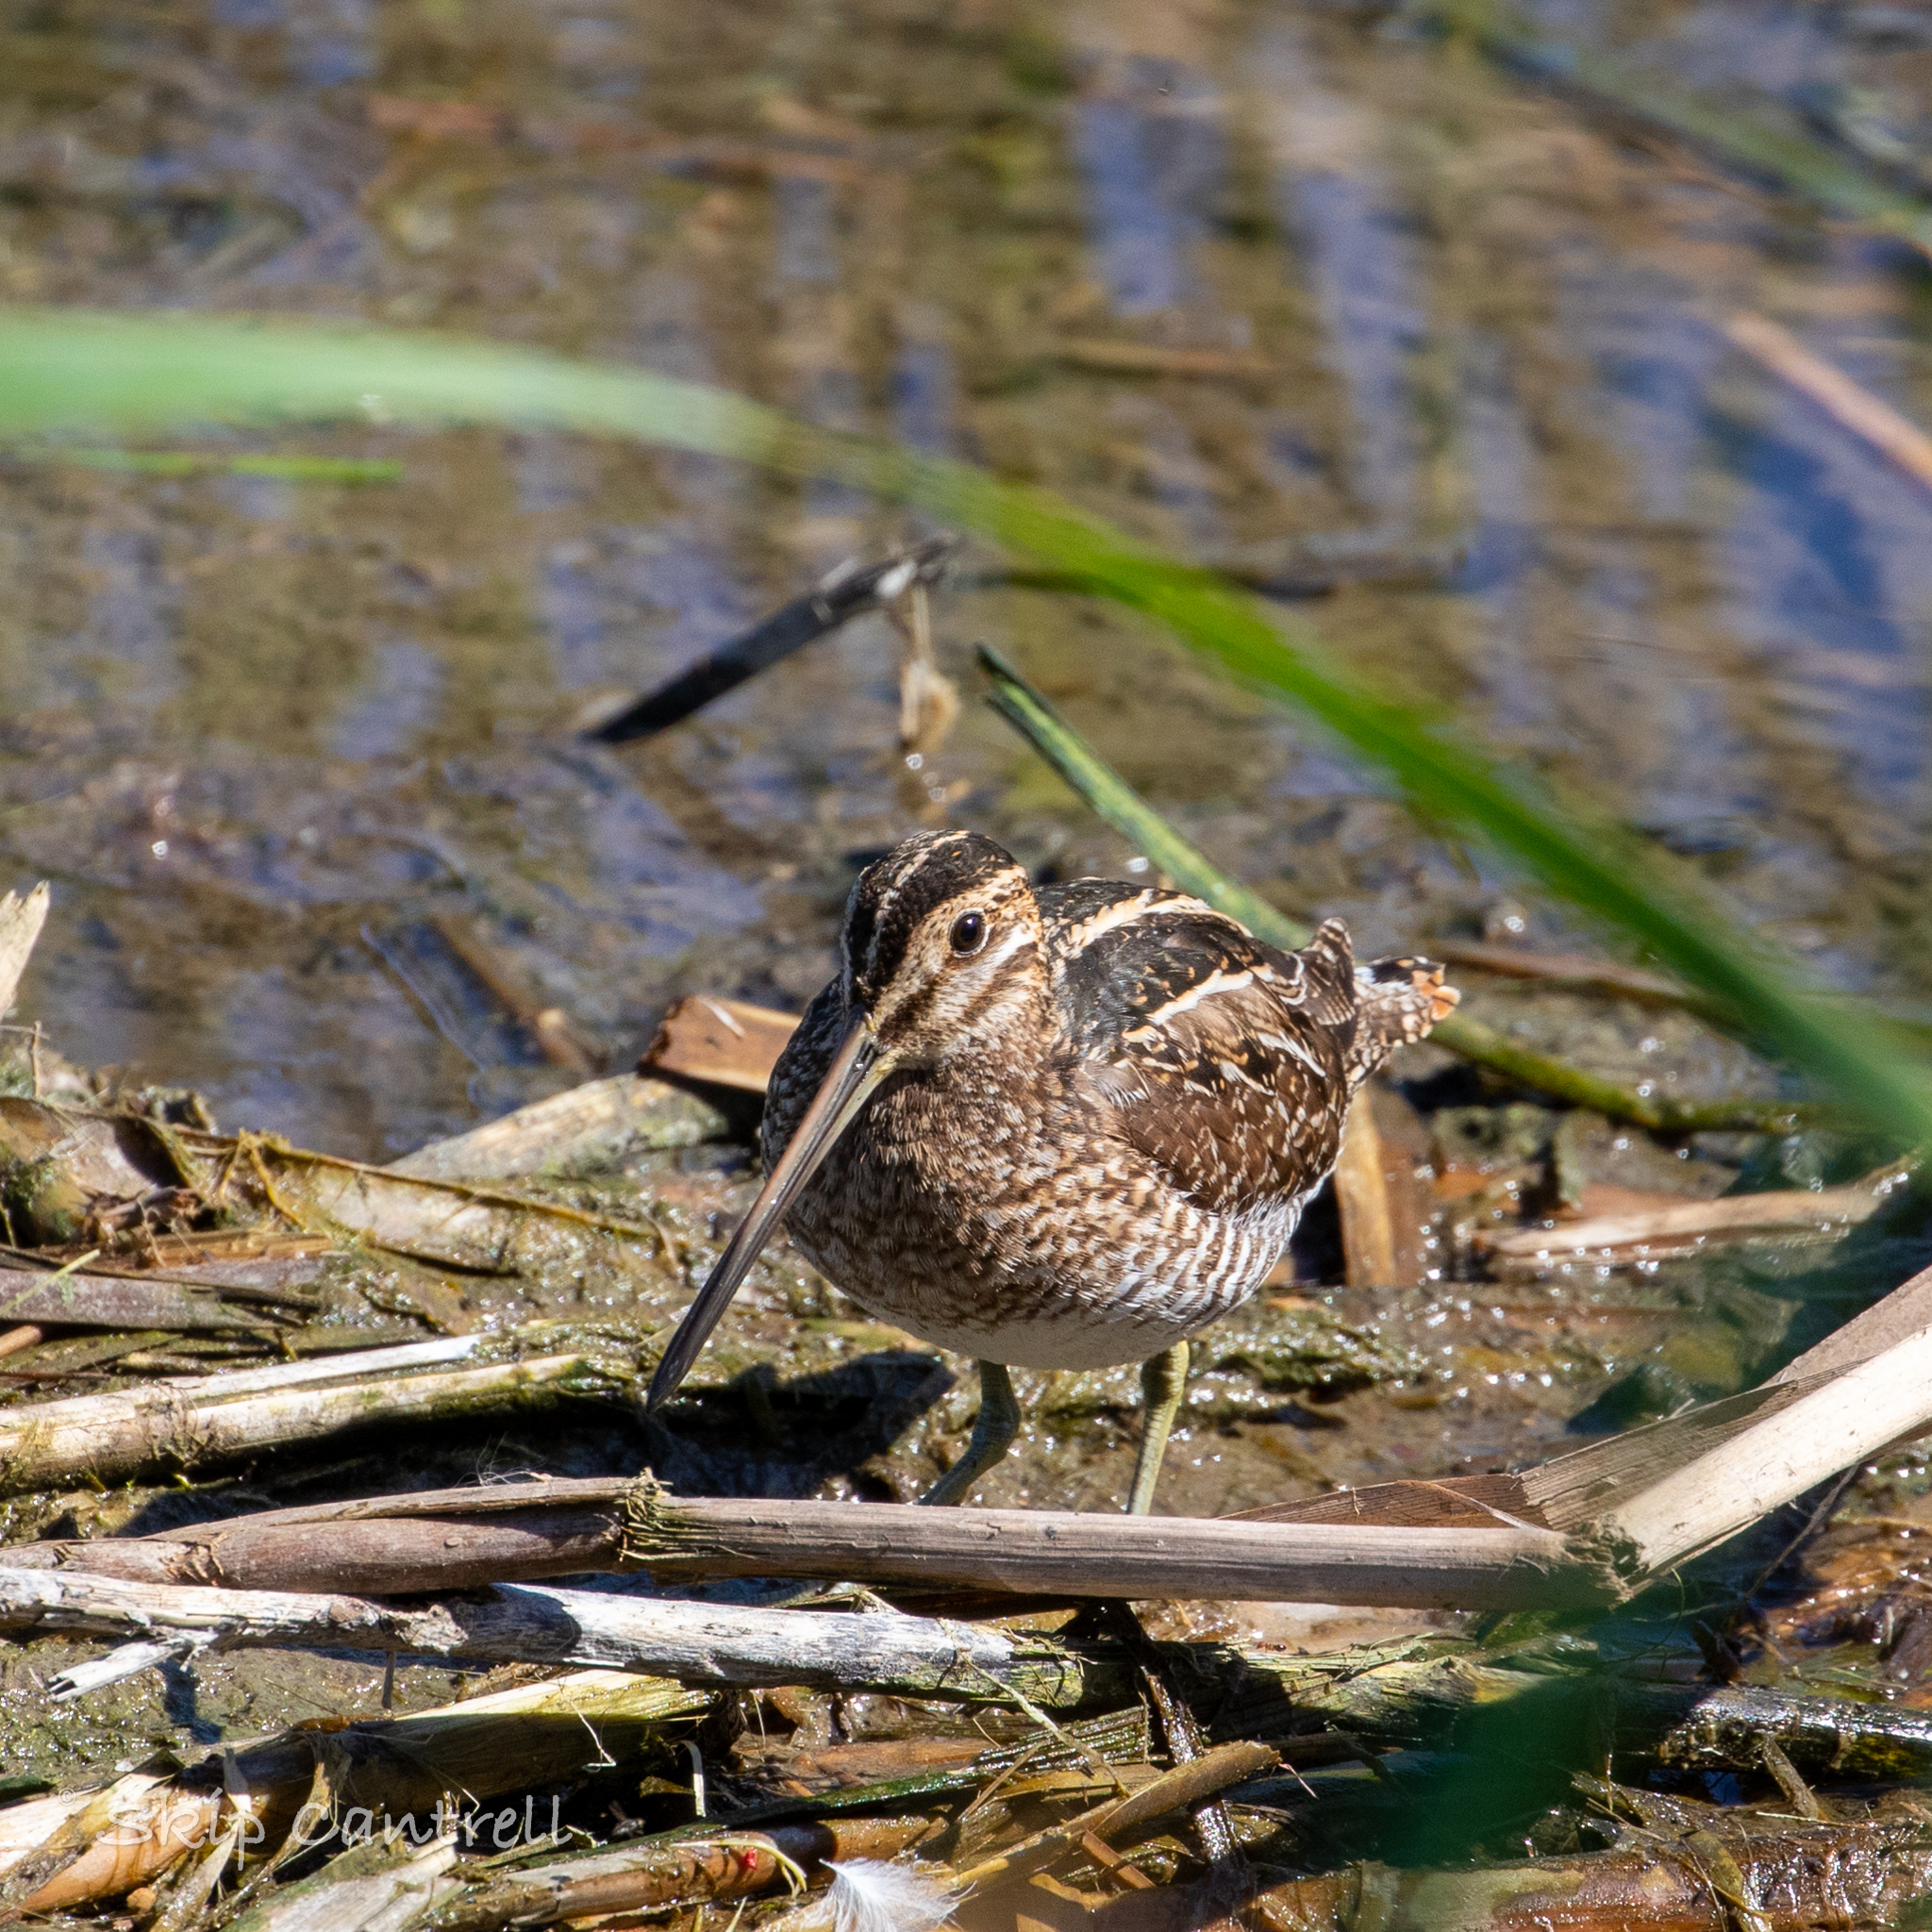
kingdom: Animalia
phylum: Chordata
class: Aves
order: Charadriiformes
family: Scolopacidae
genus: Gallinago
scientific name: Gallinago delicata
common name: Wilson's snipe
